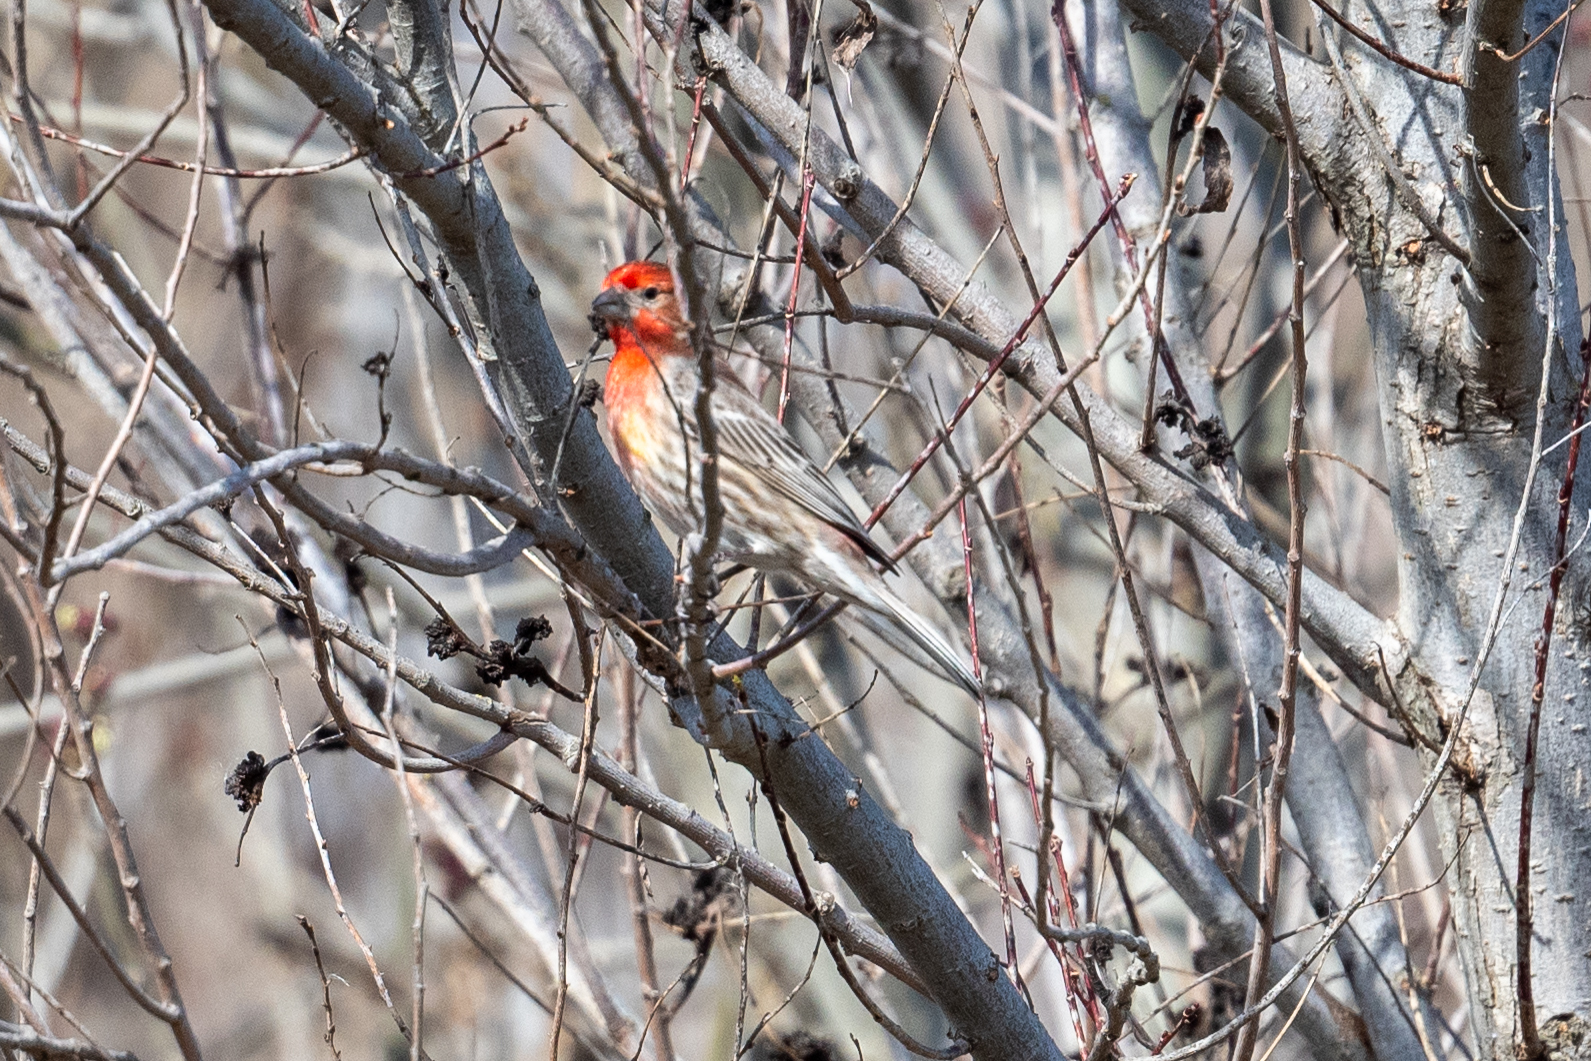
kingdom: Animalia
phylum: Chordata
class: Aves
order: Passeriformes
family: Fringillidae
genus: Haemorhous
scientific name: Haemorhous mexicanus
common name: House finch
